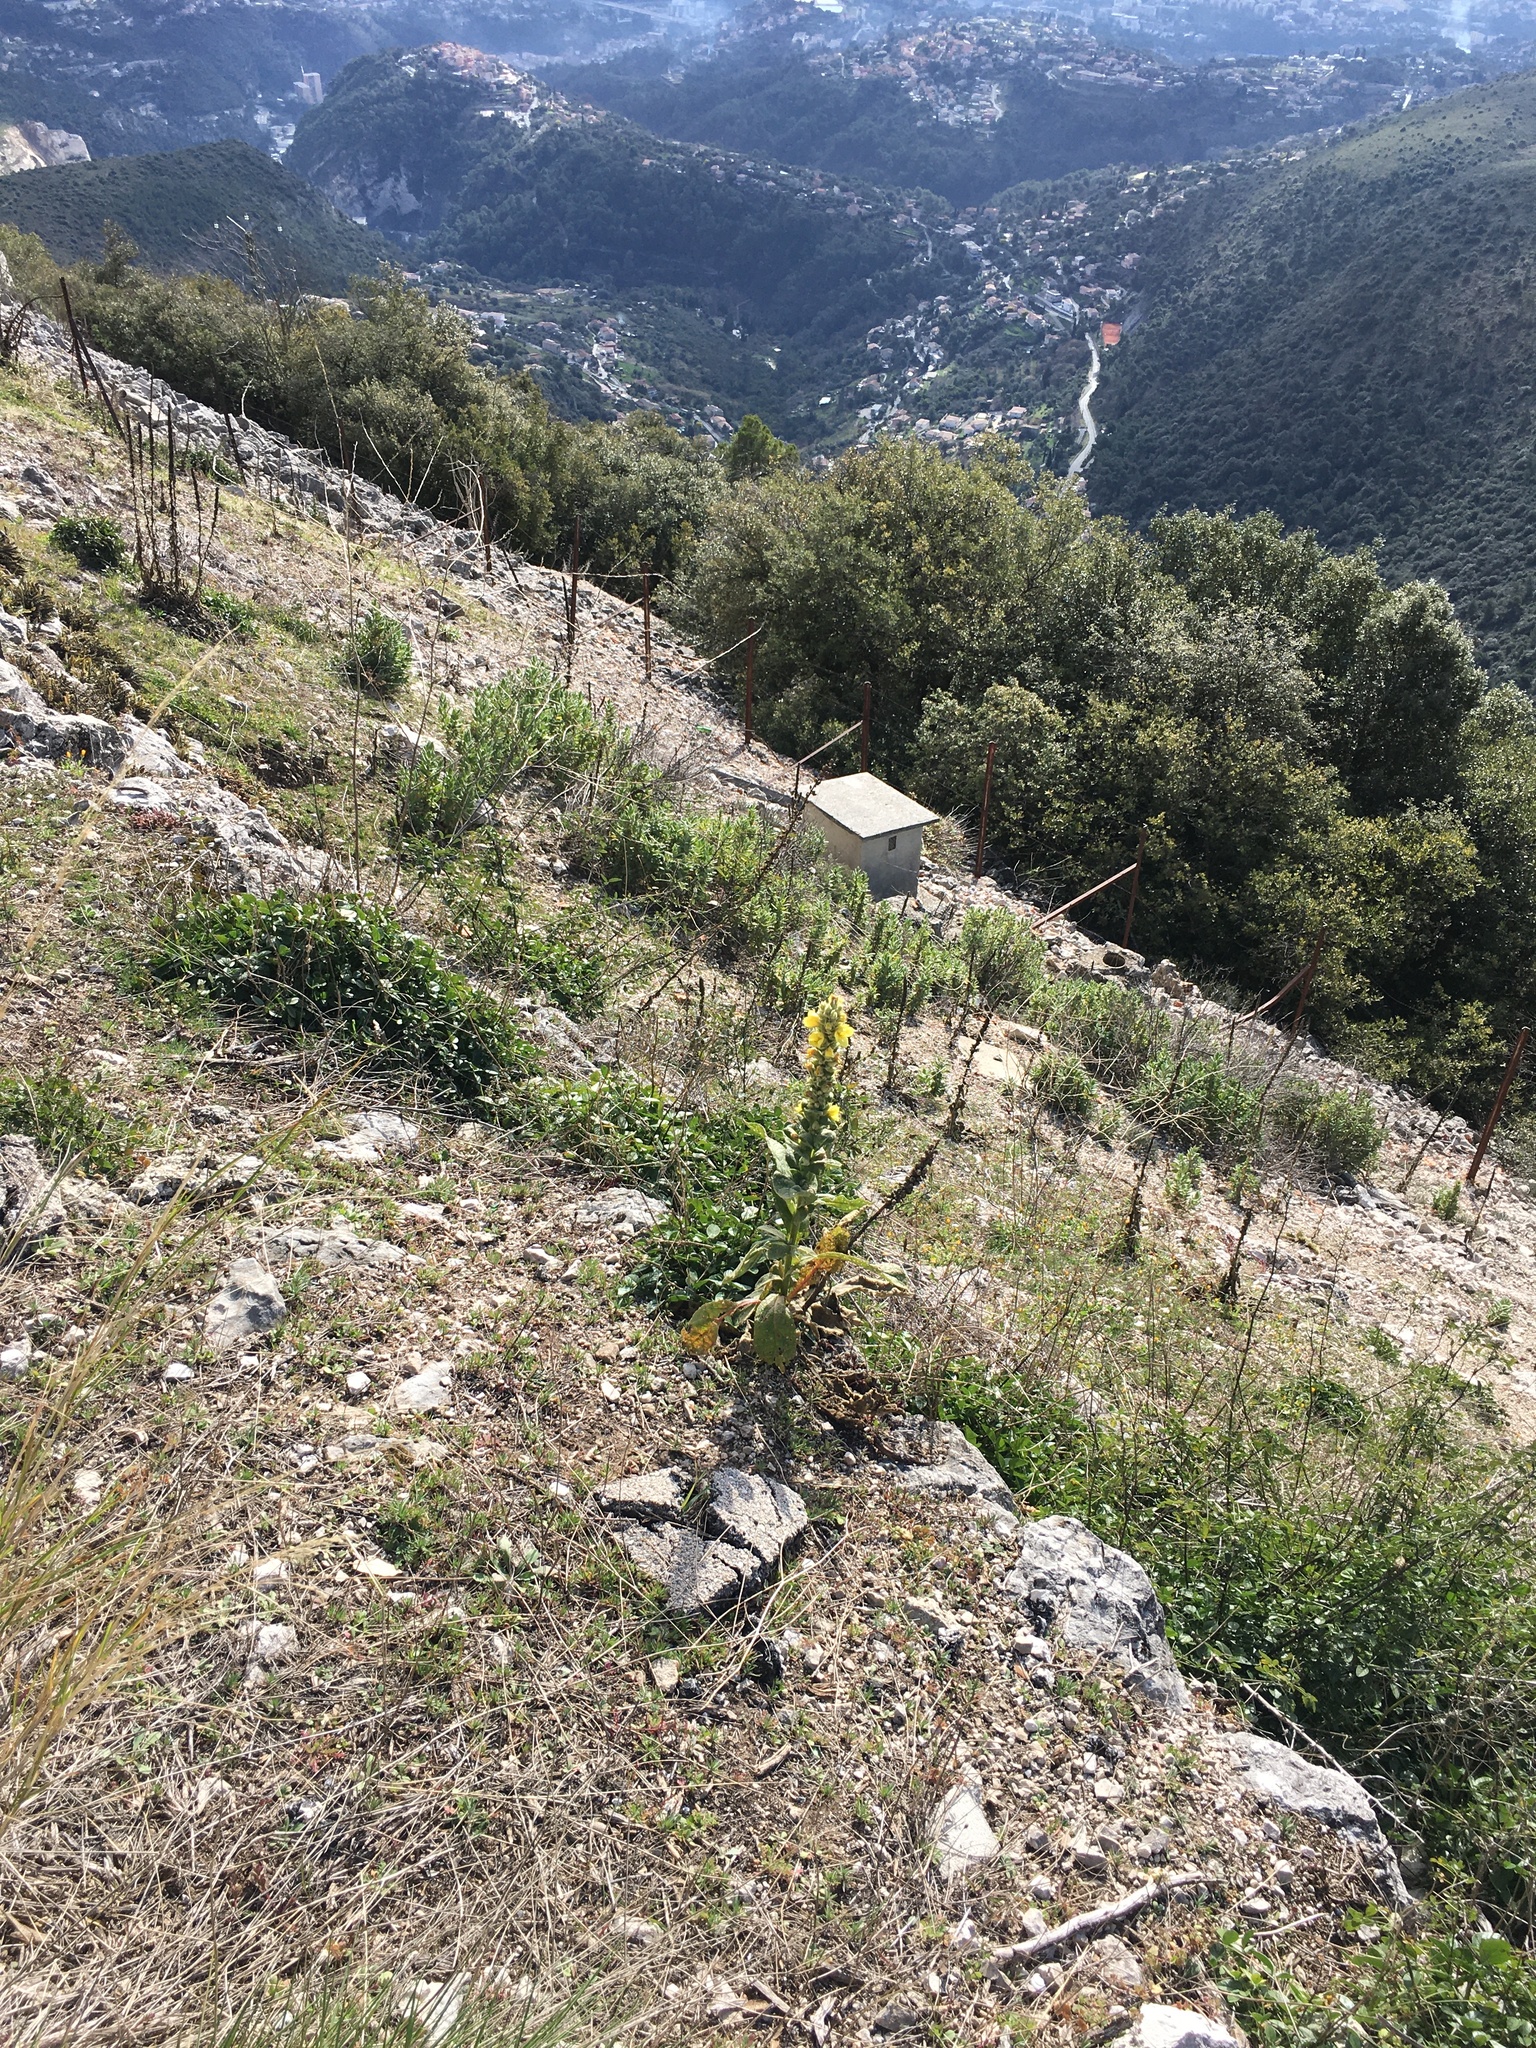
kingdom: Plantae
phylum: Tracheophyta
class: Magnoliopsida
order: Lamiales
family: Scrophulariaceae
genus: Verbascum
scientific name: Verbascum phlomoides
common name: Orange mullein
